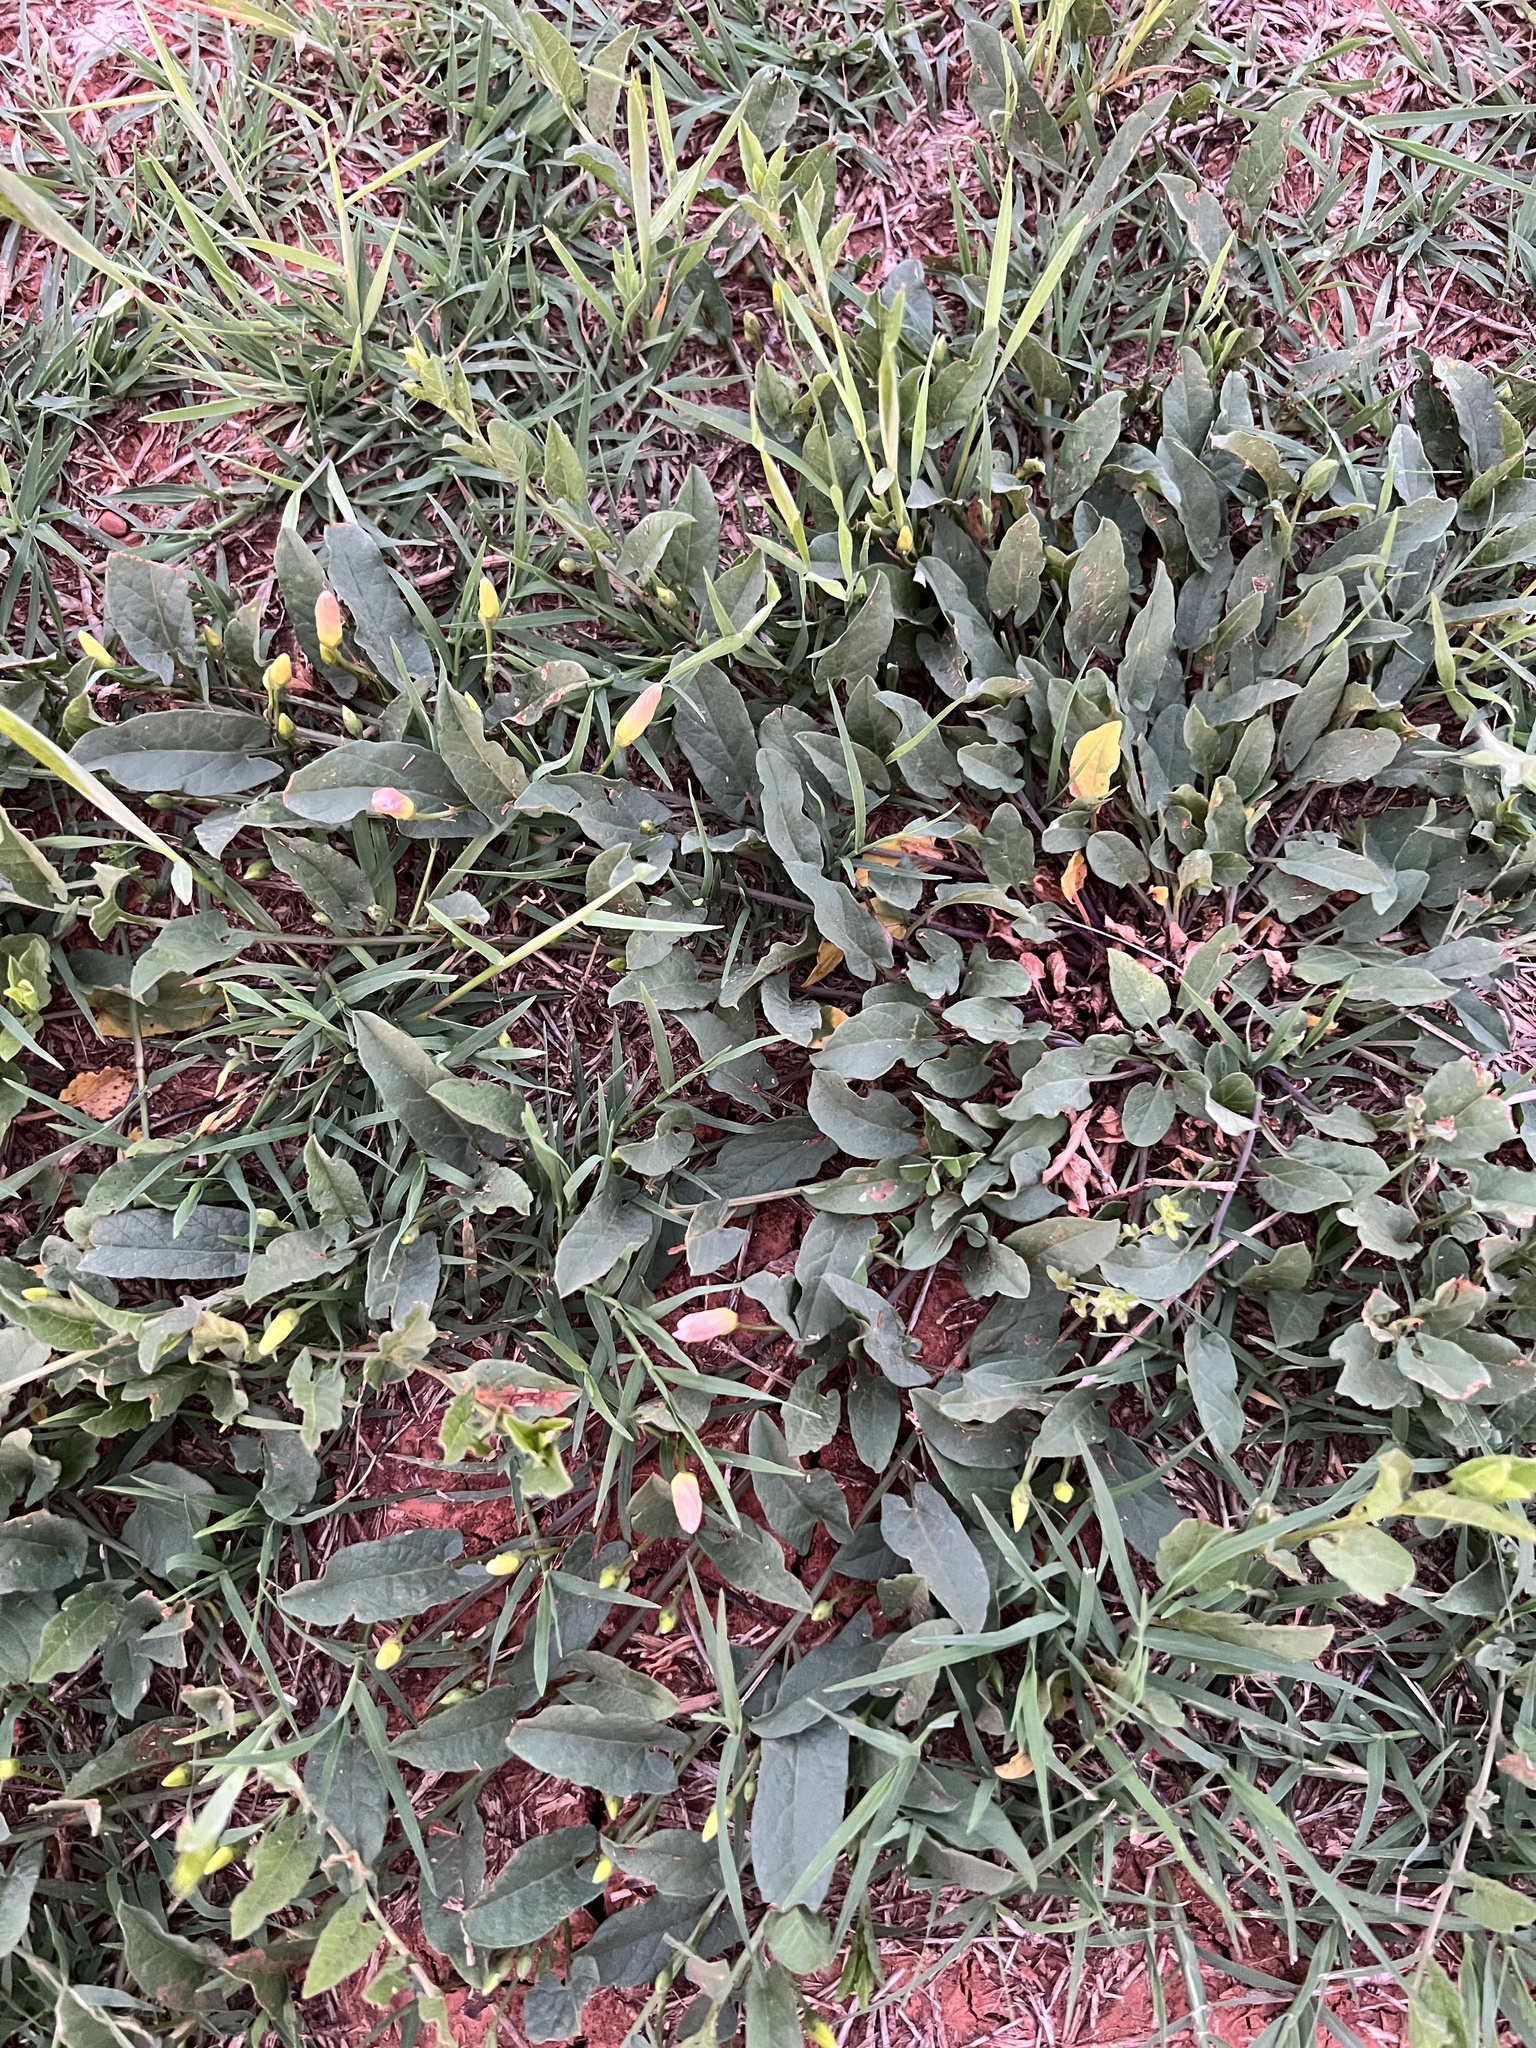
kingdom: Plantae
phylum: Tracheophyta
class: Magnoliopsida
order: Solanales
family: Convolvulaceae
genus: Convolvulus
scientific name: Convolvulus arvensis
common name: Field bindweed
